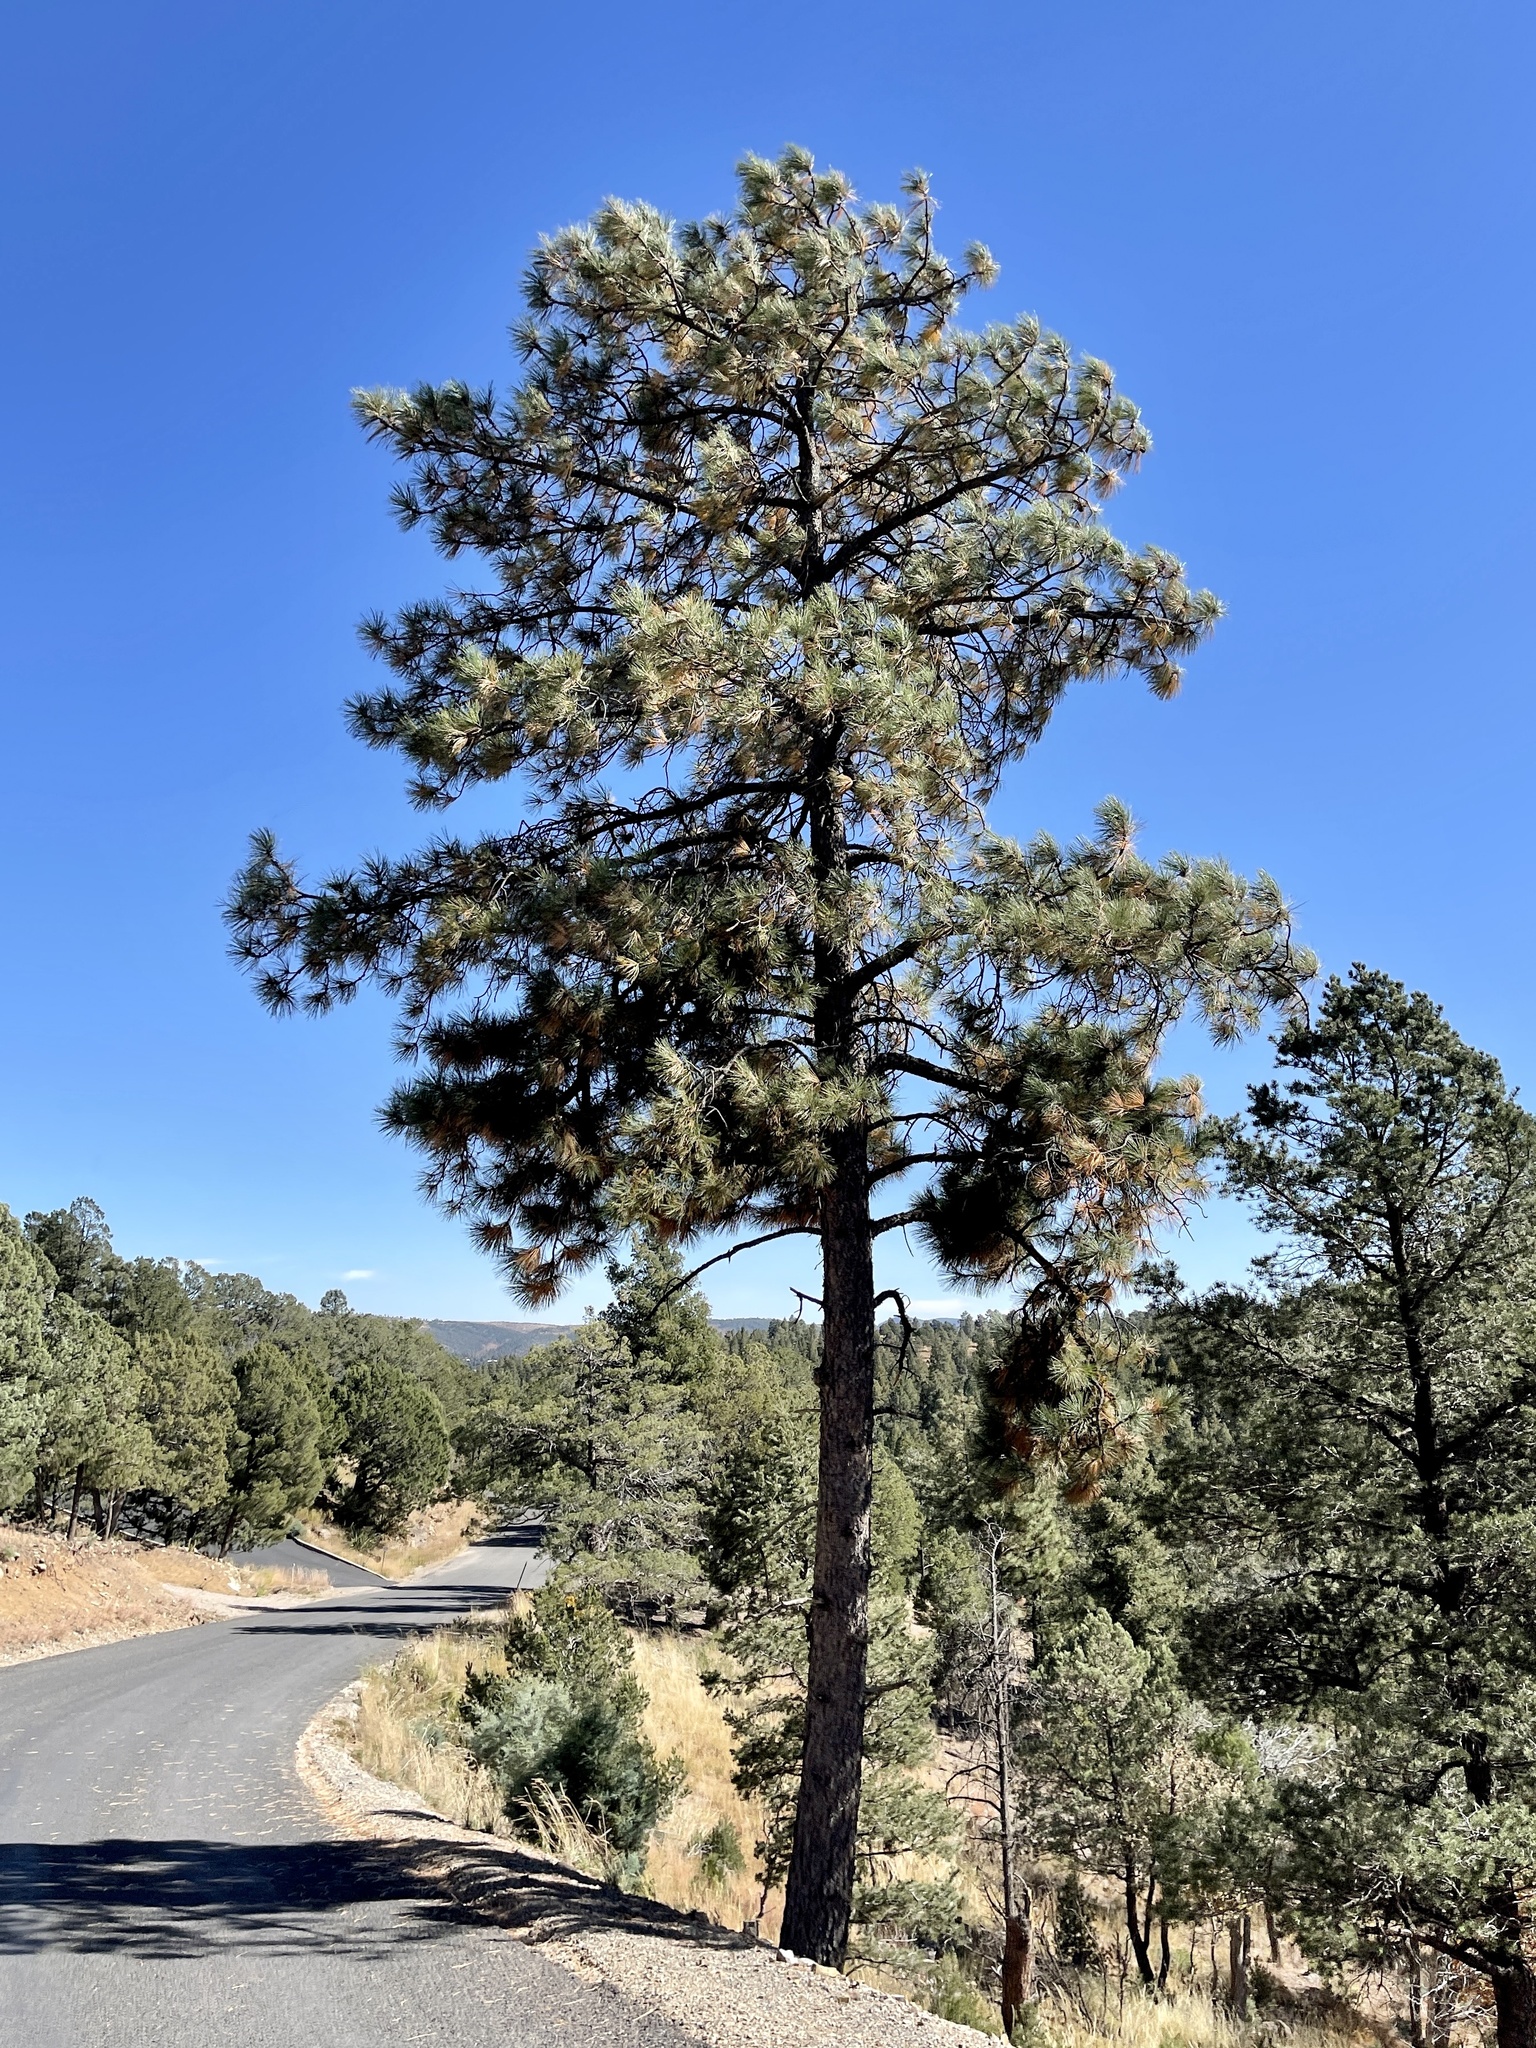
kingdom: Plantae
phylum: Tracheophyta
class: Pinopsida
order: Pinales
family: Pinaceae
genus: Pinus
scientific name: Pinus ponderosa
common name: Western yellow-pine
